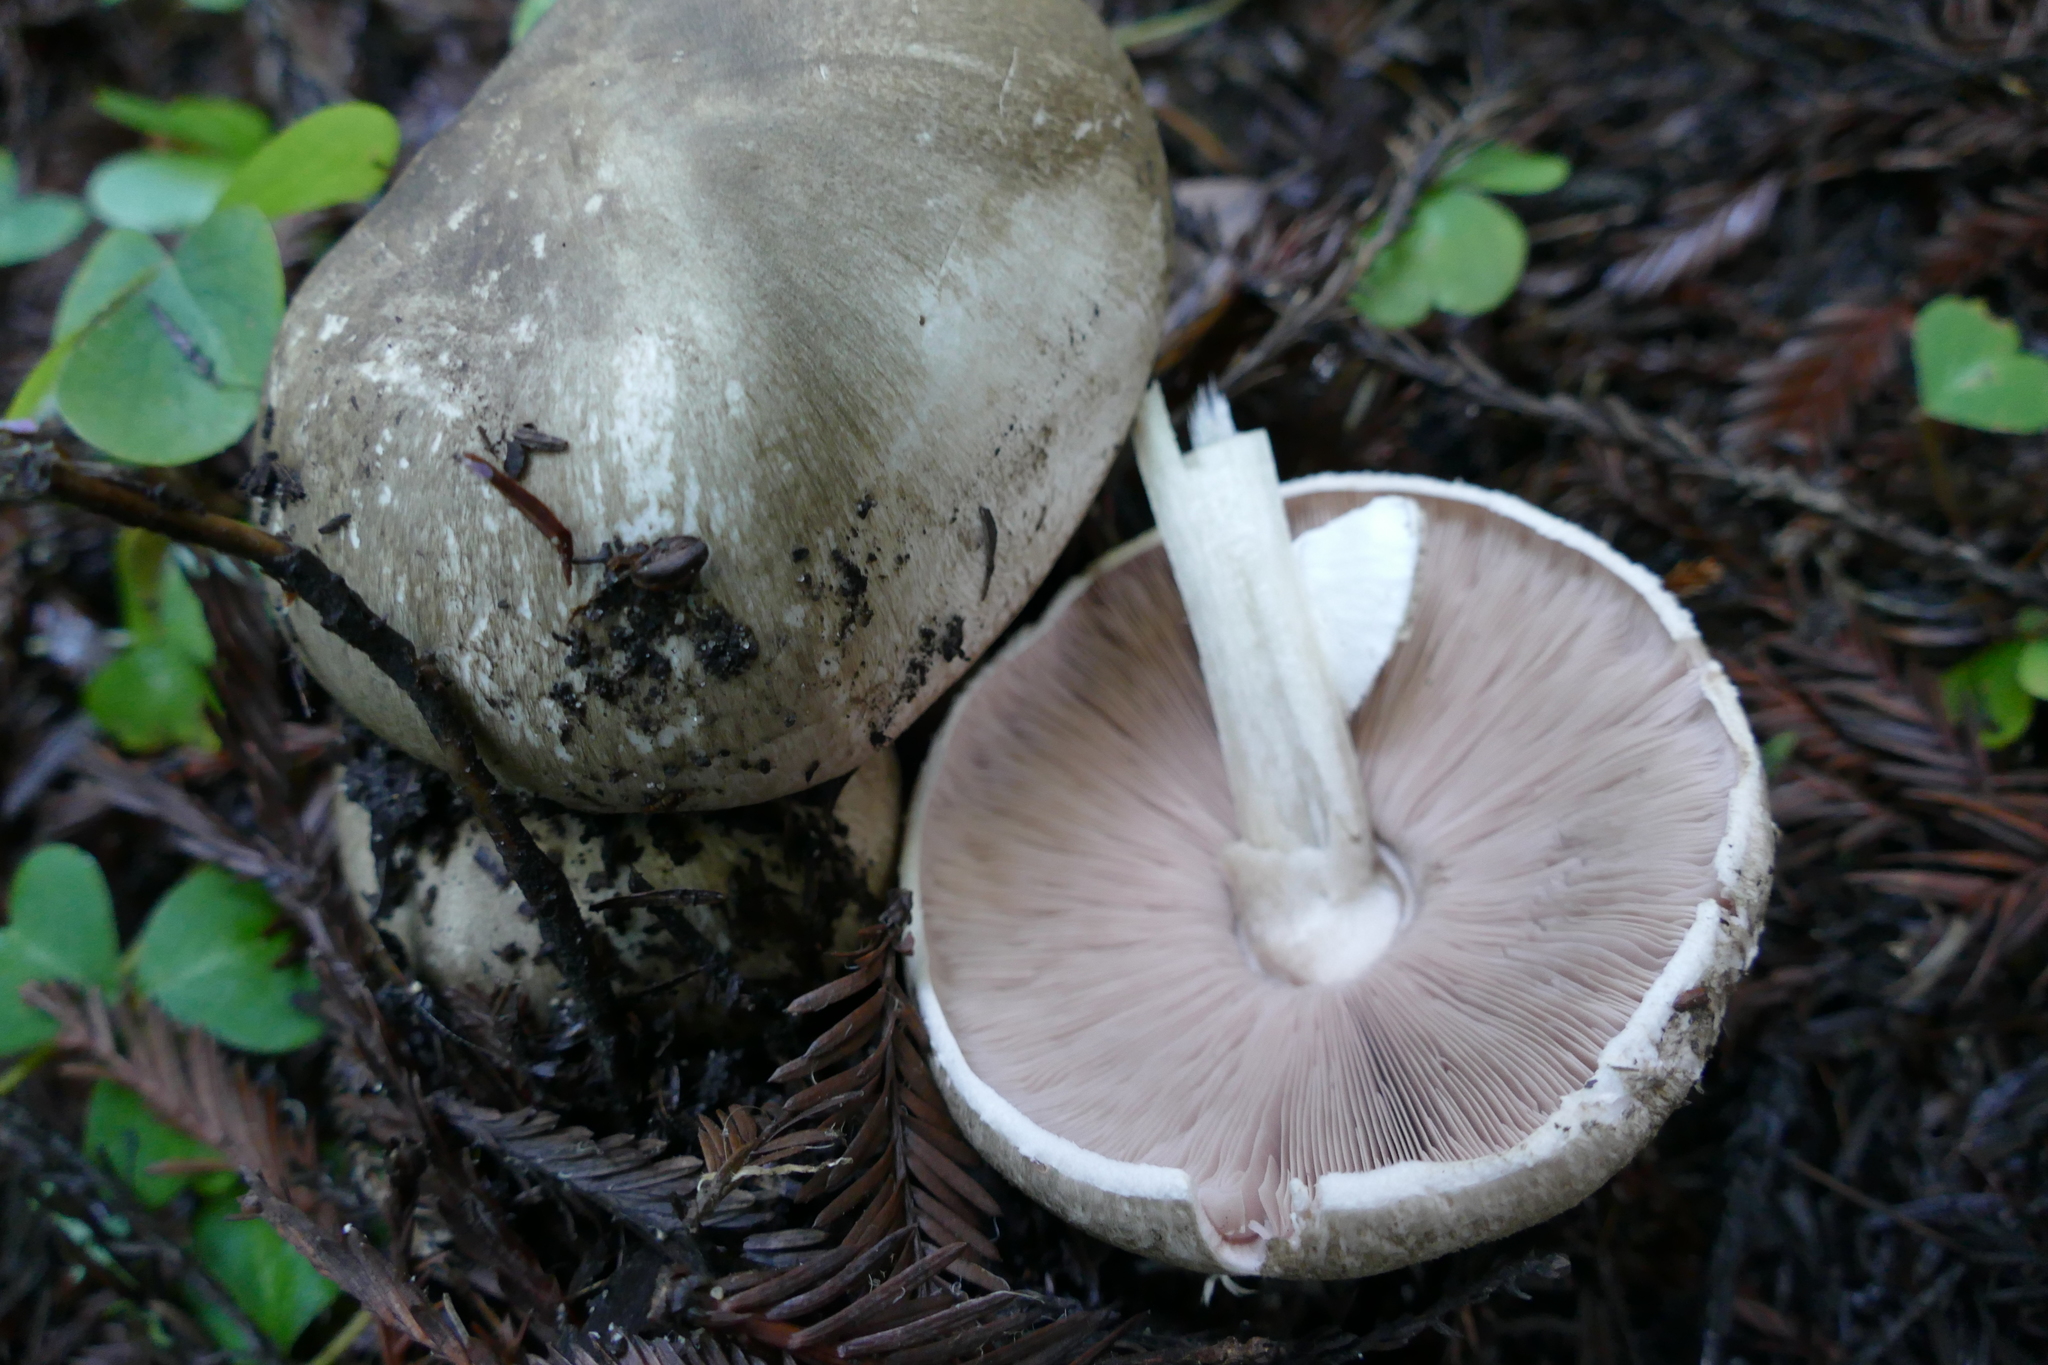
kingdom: Fungi
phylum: Basidiomycota
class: Agaricomycetes
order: Agaricales
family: Agaricaceae
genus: Agaricus
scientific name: Agaricus hondensis
